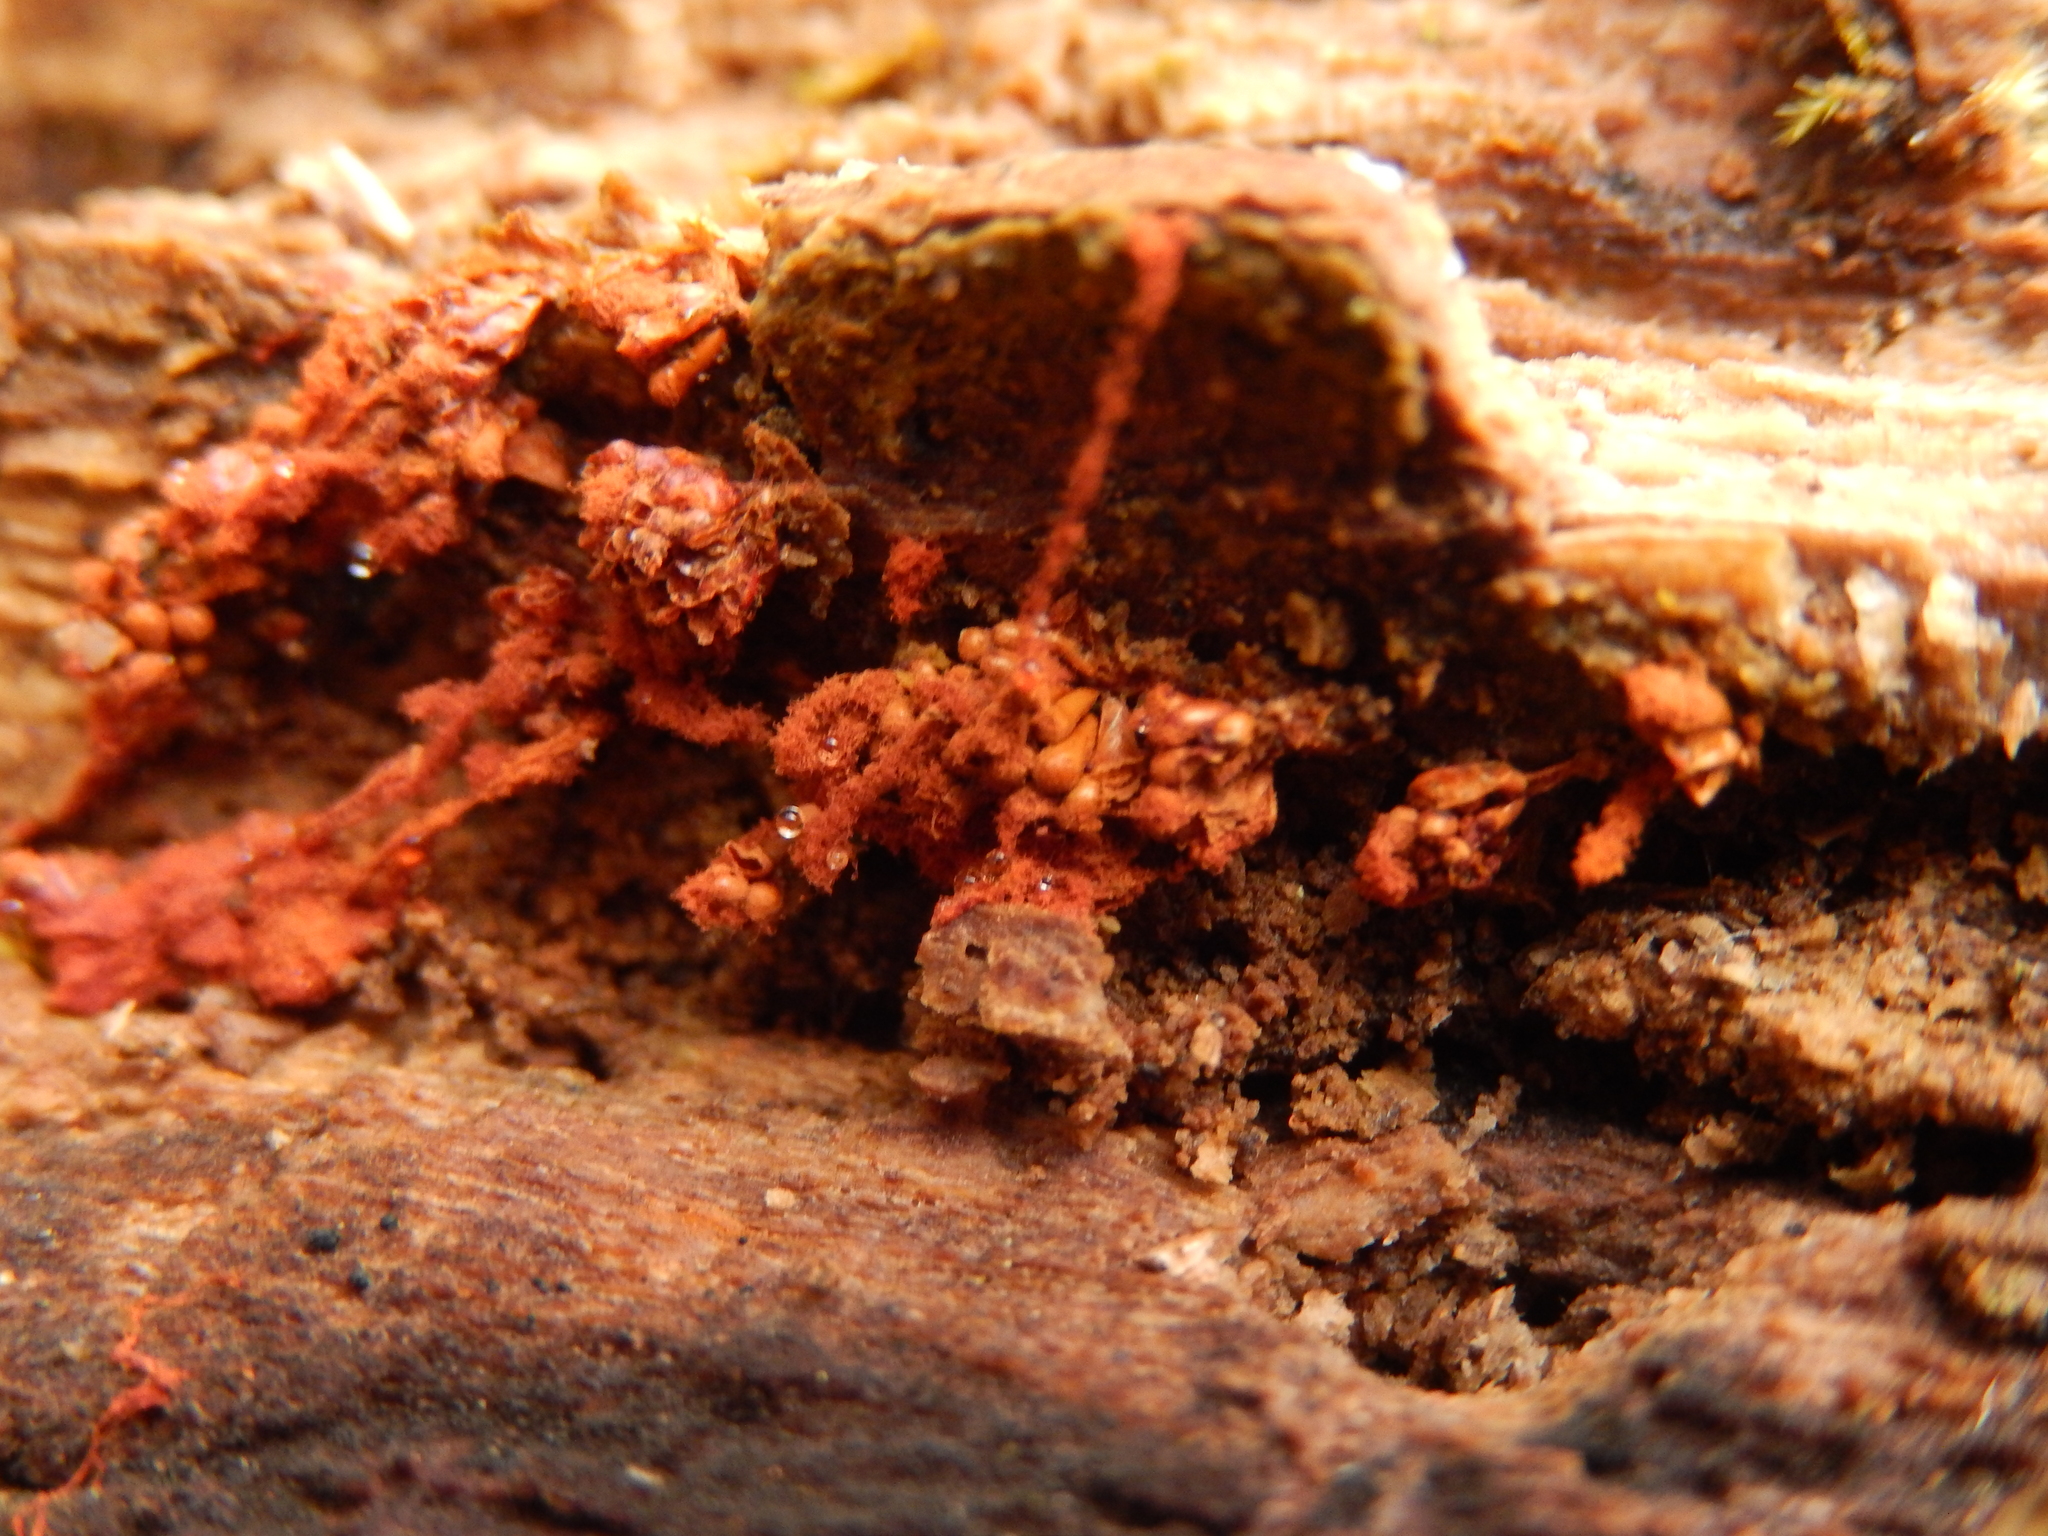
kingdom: Protozoa
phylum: Mycetozoa
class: Myxomycetes
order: Trichiales
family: Trichiaceae
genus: Metatrichia
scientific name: Metatrichia vesparia
